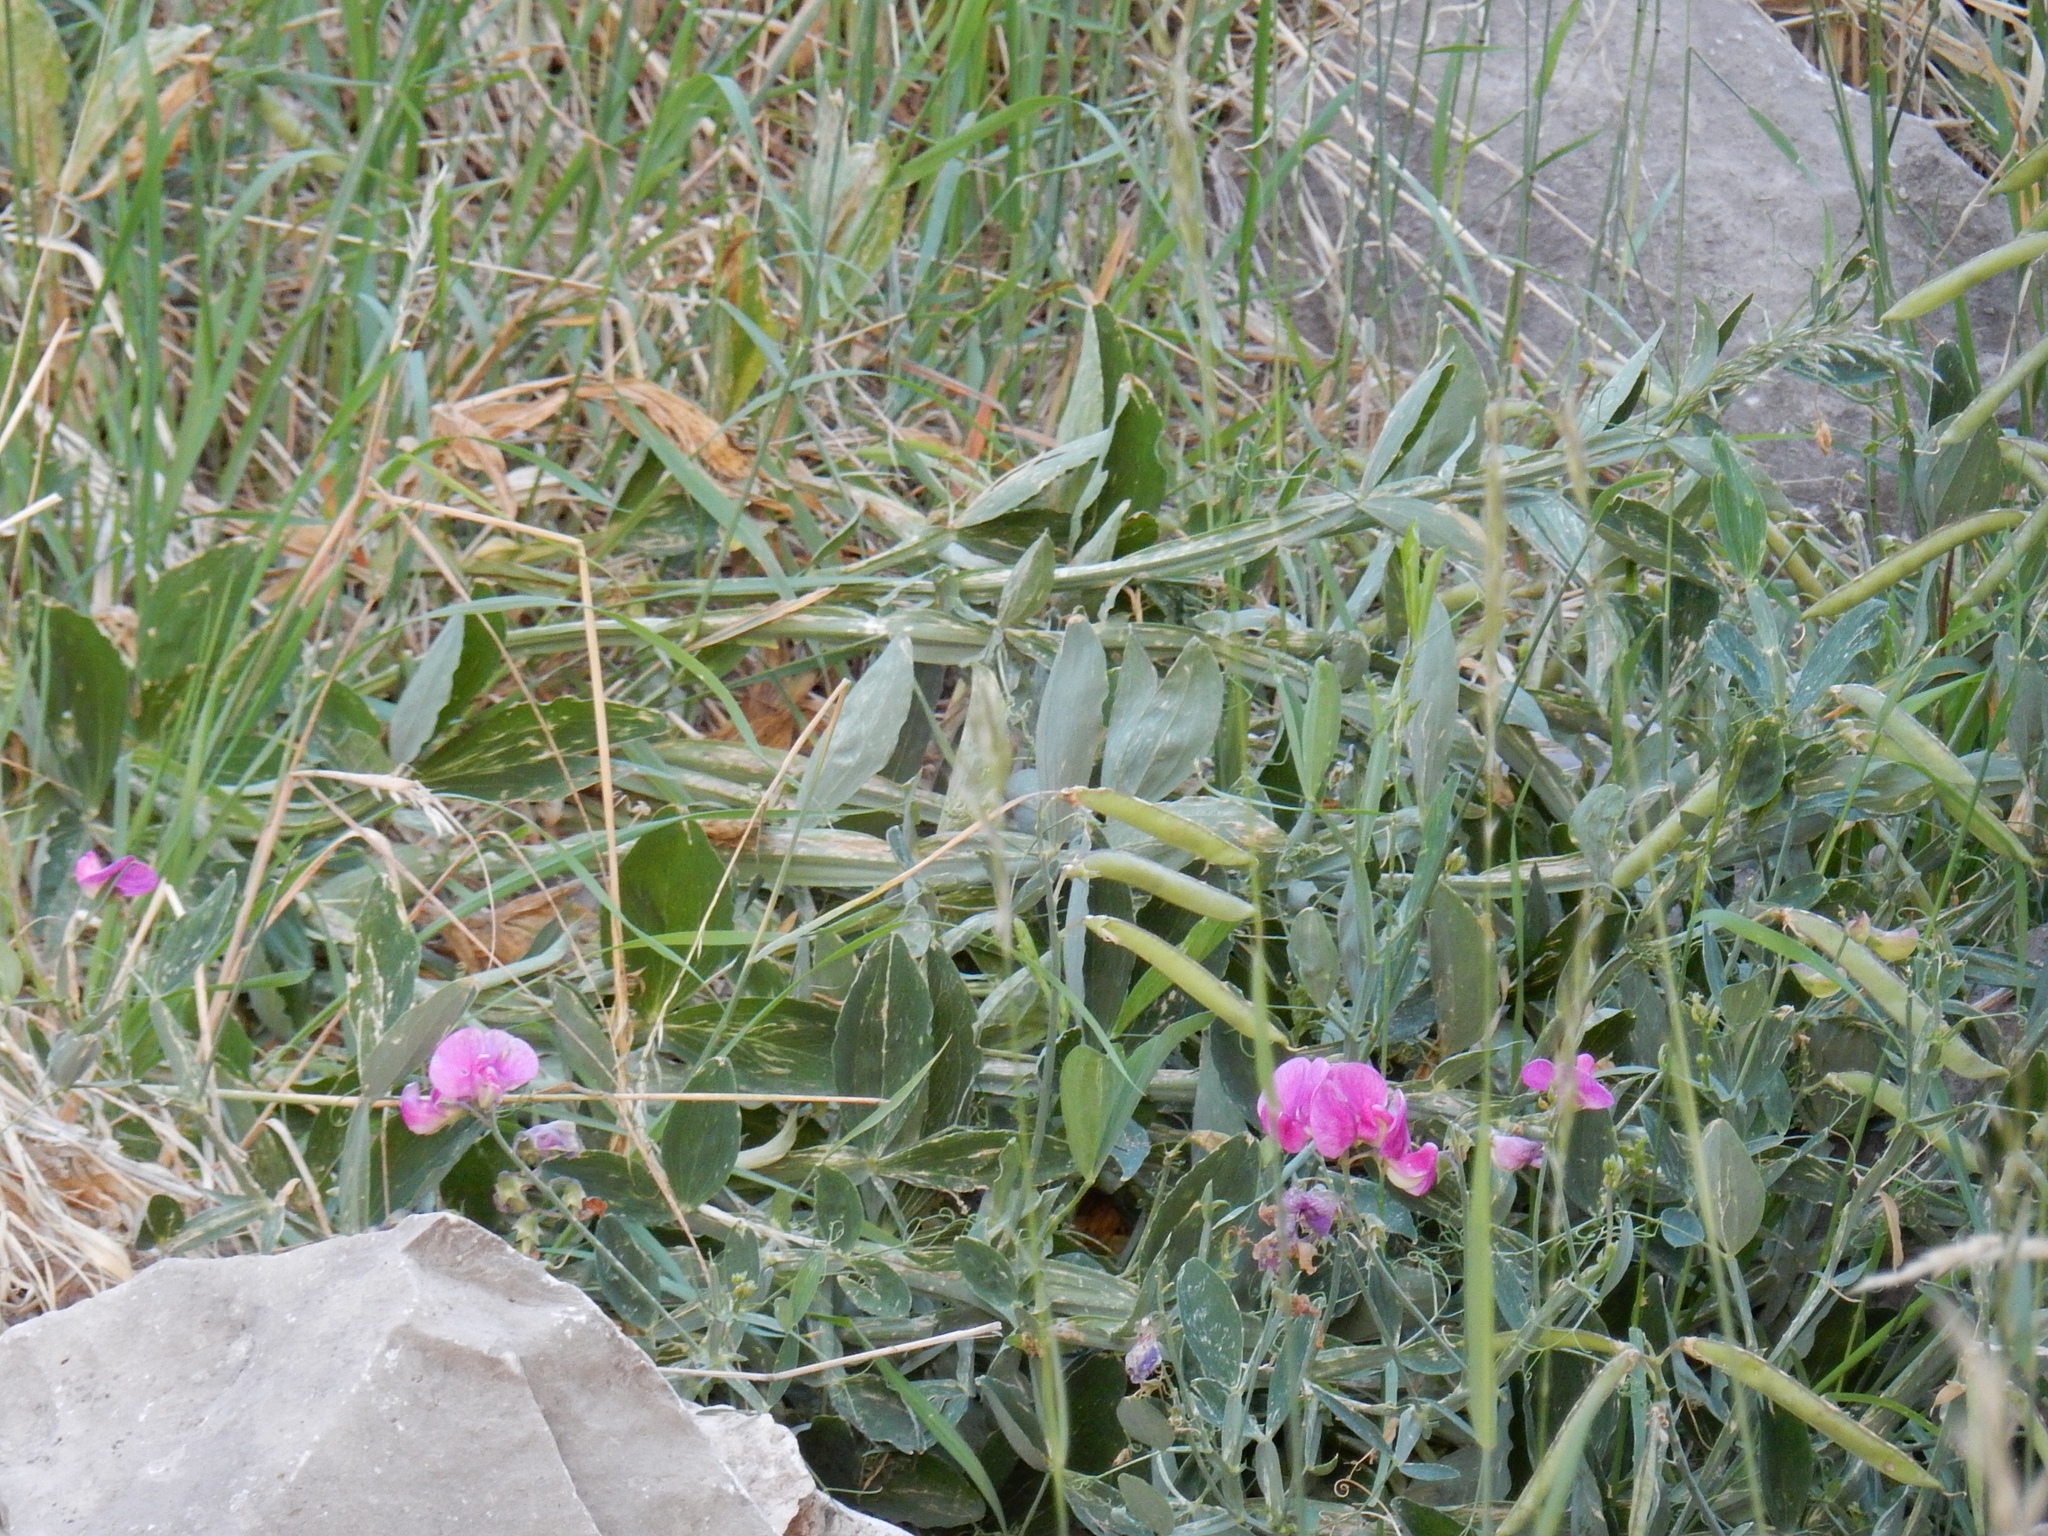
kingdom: Plantae
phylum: Tracheophyta
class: Magnoliopsida
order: Fabales
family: Fabaceae
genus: Lathyrus
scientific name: Lathyrus latifolius
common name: Perennial pea
